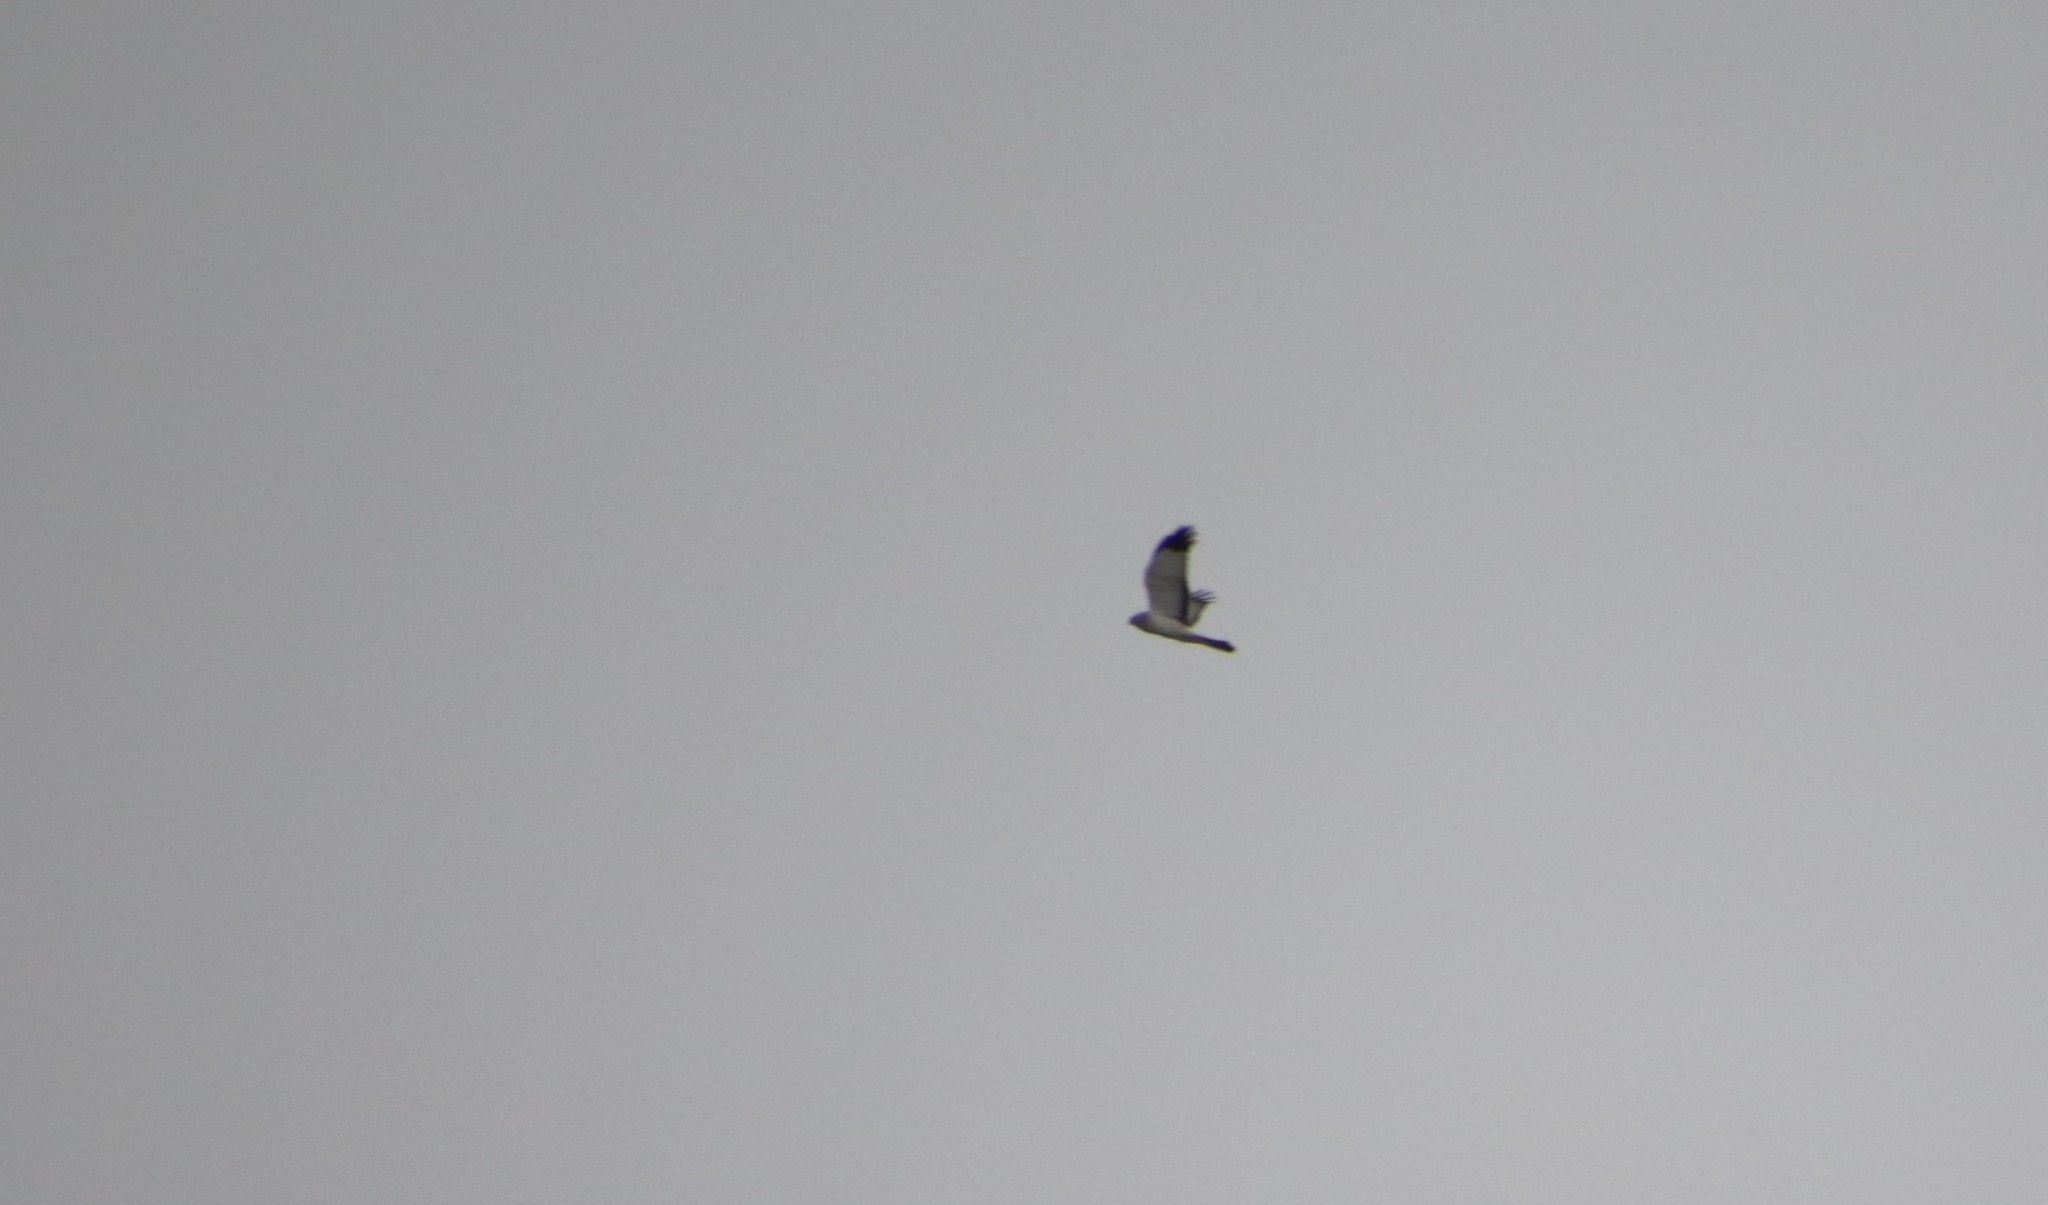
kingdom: Animalia
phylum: Chordata
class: Aves
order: Accipitriformes
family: Accipitridae
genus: Circus
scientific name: Circus cyaneus
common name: Hen harrier
